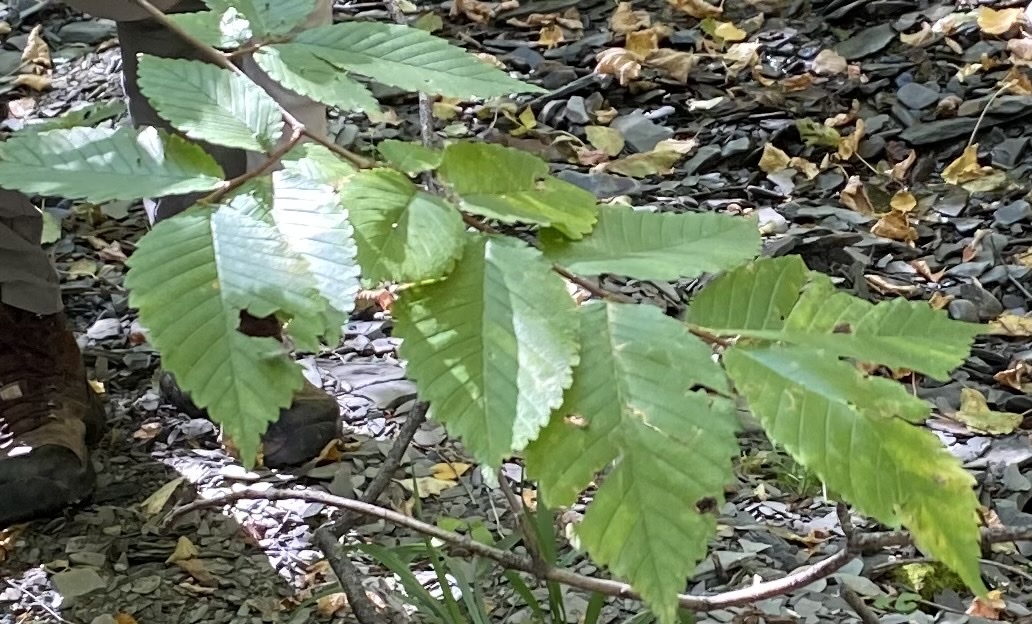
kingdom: Plantae
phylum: Tracheophyta
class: Magnoliopsida
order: Rosales
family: Ulmaceae
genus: Ulmus
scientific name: Ulmus americana
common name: American elm
